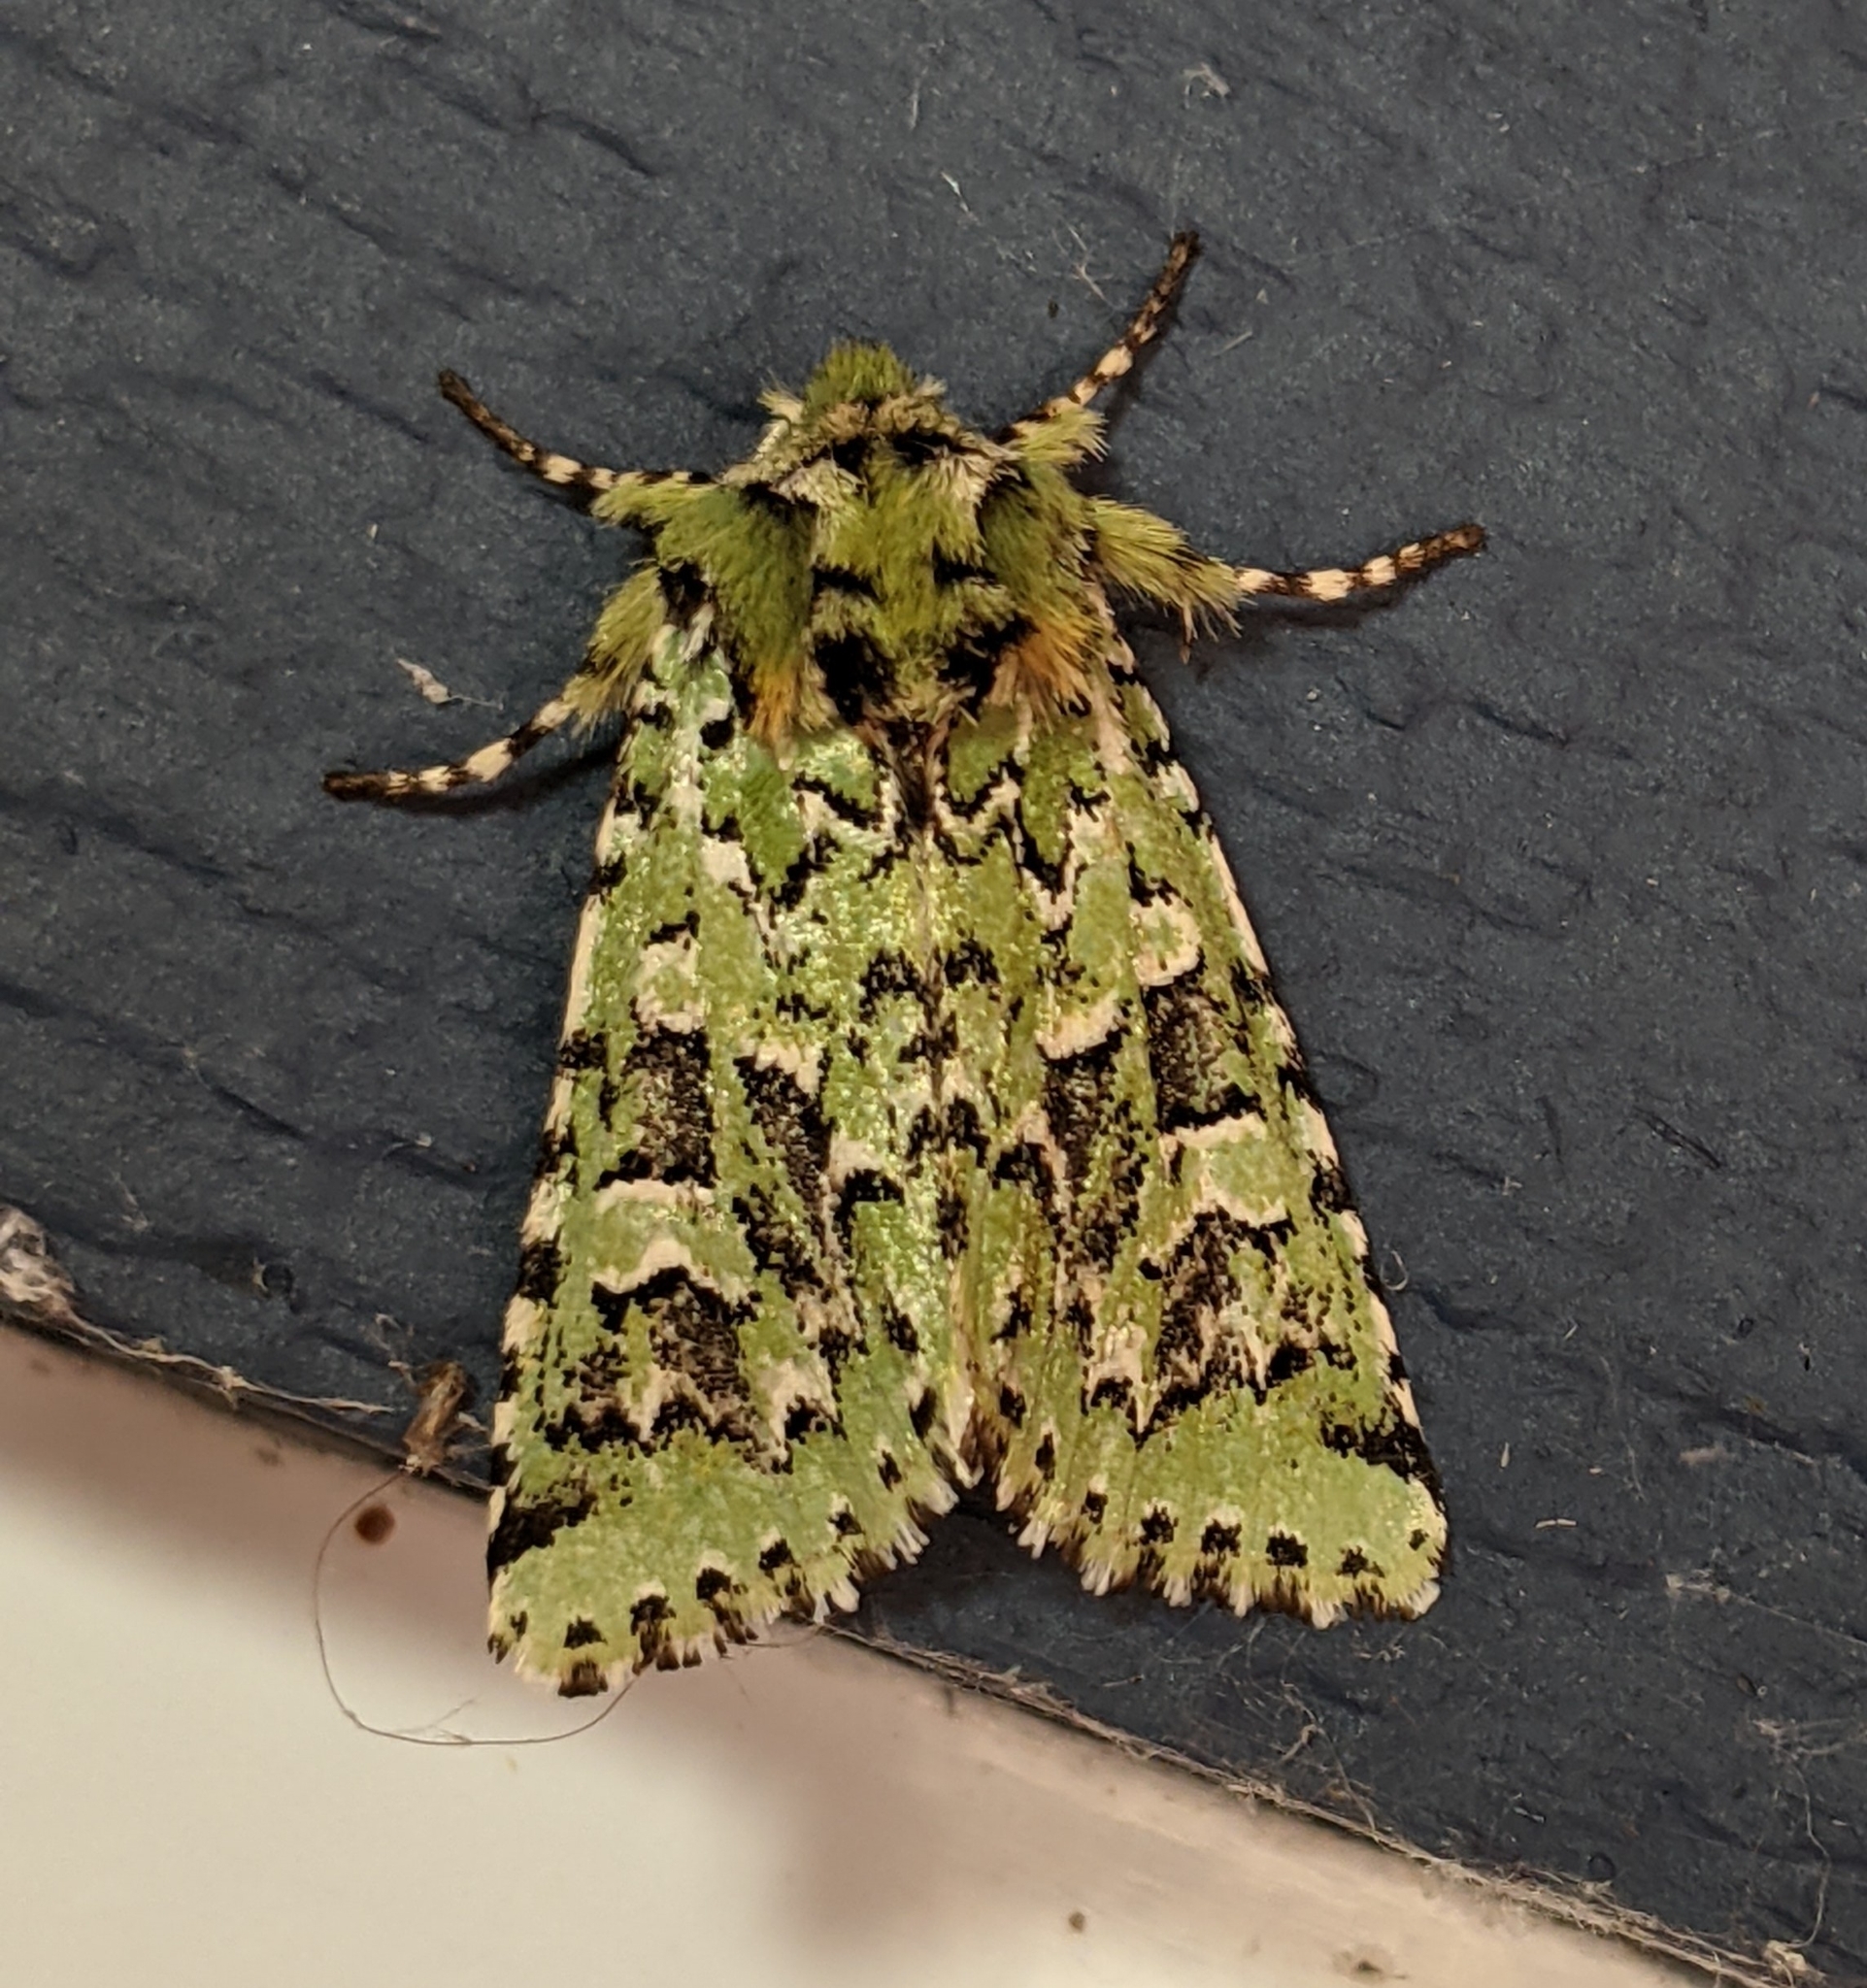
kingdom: Animalia
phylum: Arthropoda
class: Insecta
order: Lepidoptera
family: Noctuidae
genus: Feralia
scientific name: Feralia comstocki
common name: Comstock's sallow
